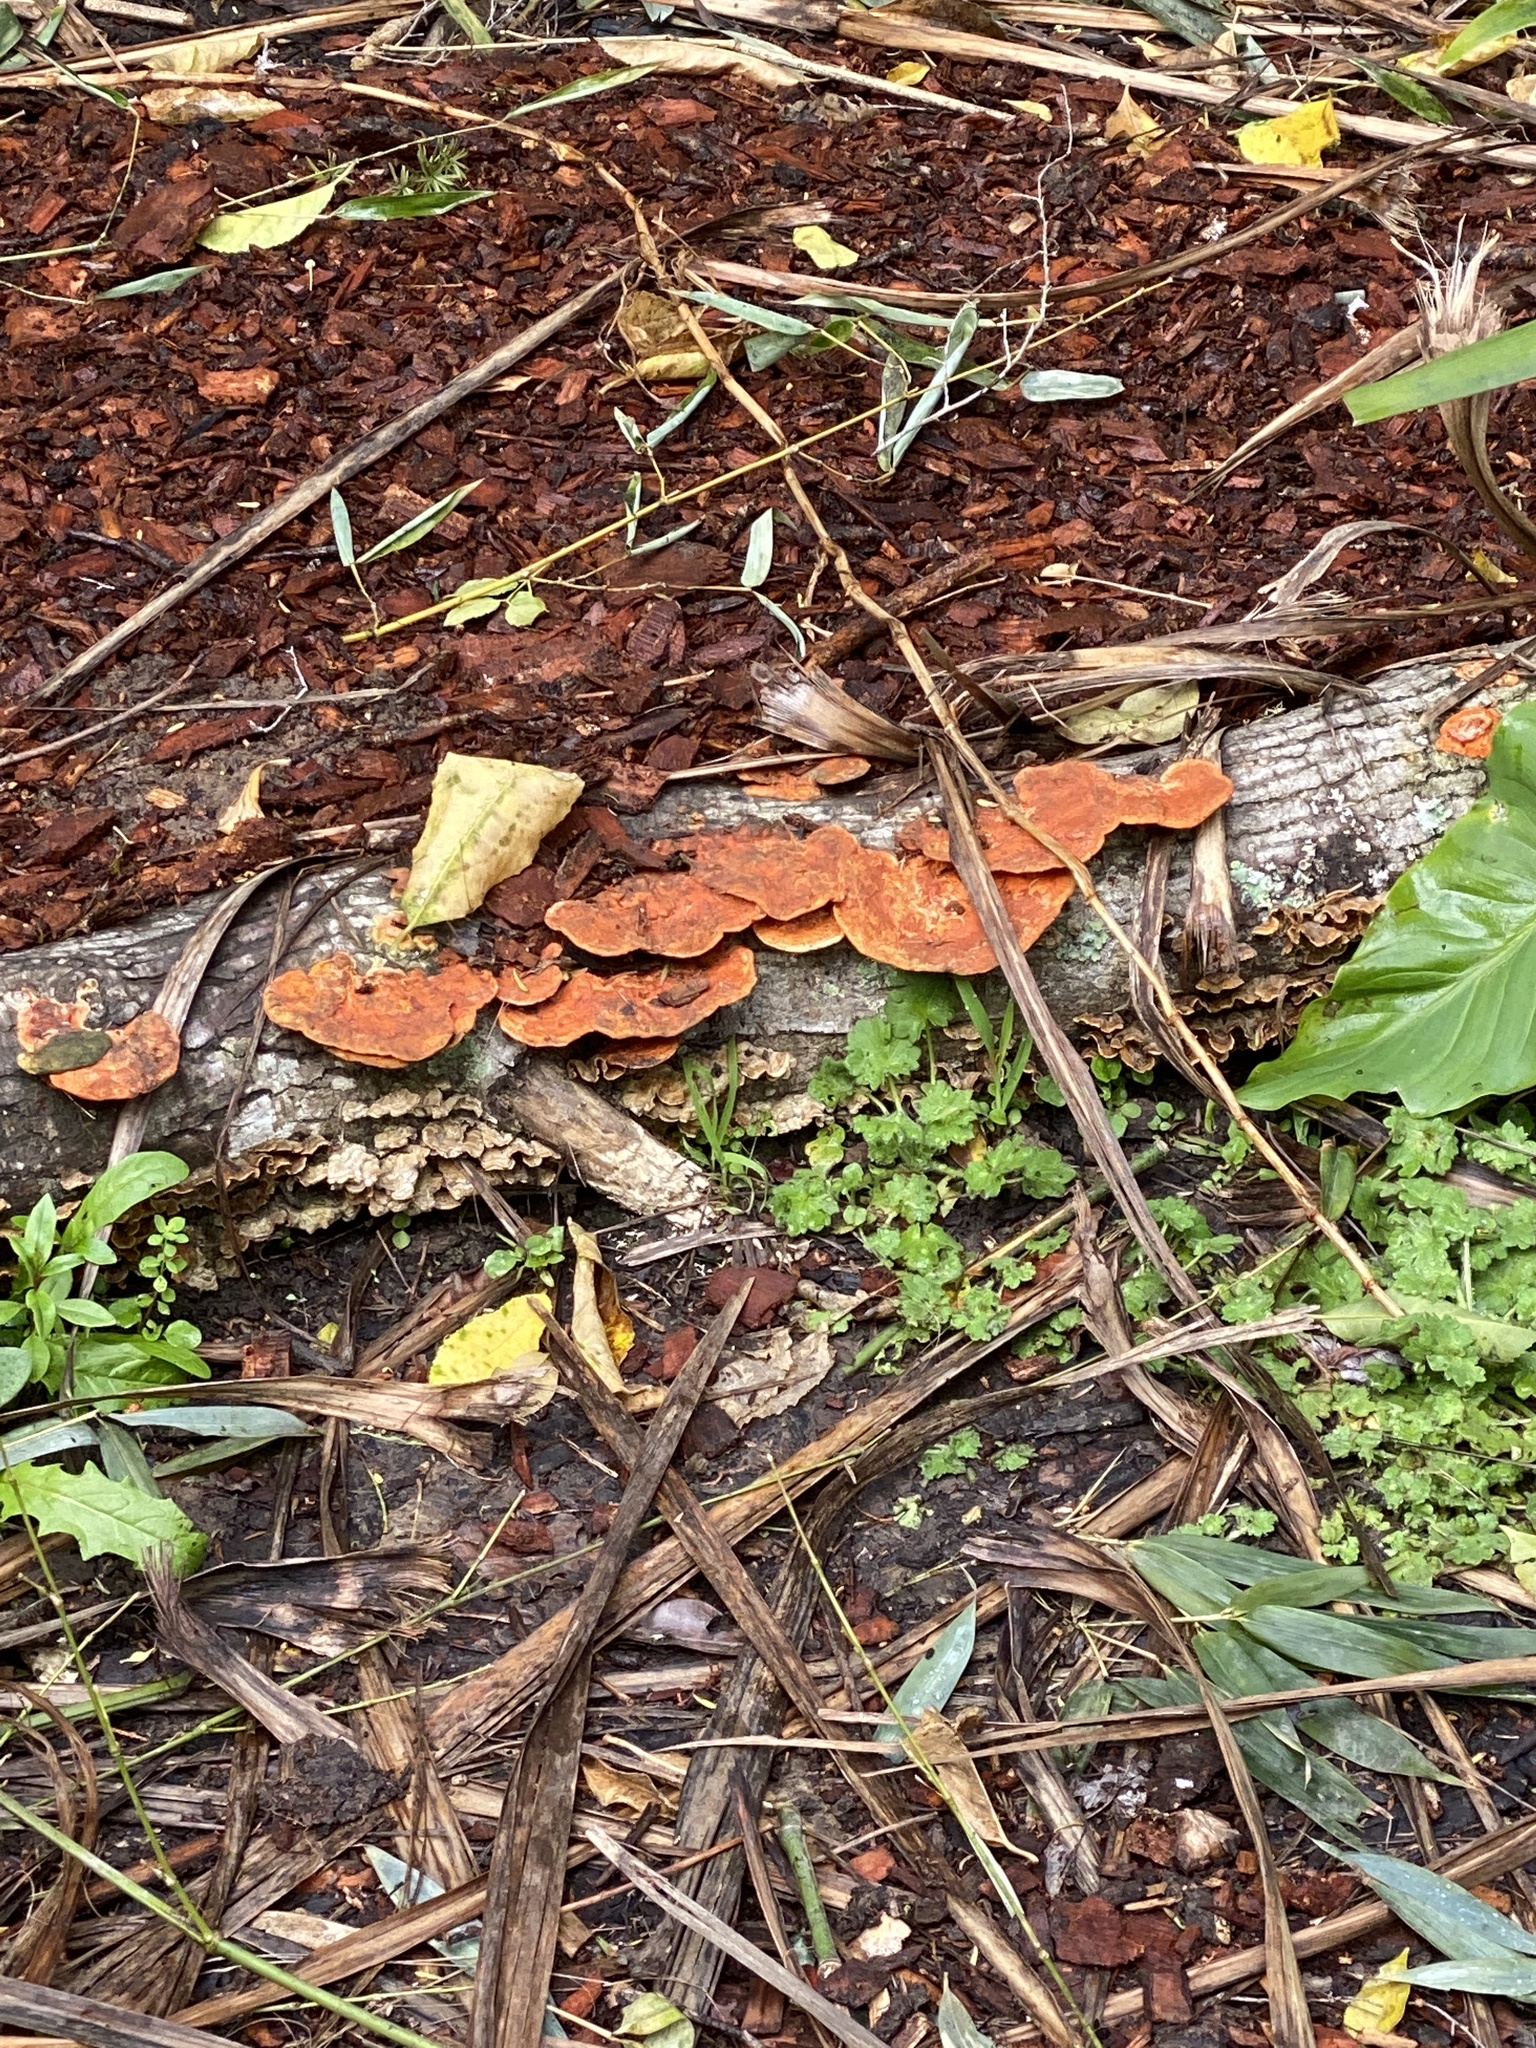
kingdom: Fungi
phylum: Basidiomycota
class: Agaricomycetes
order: Polyporales
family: Polyporaceae
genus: Trametes
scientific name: Trametes coccinea
